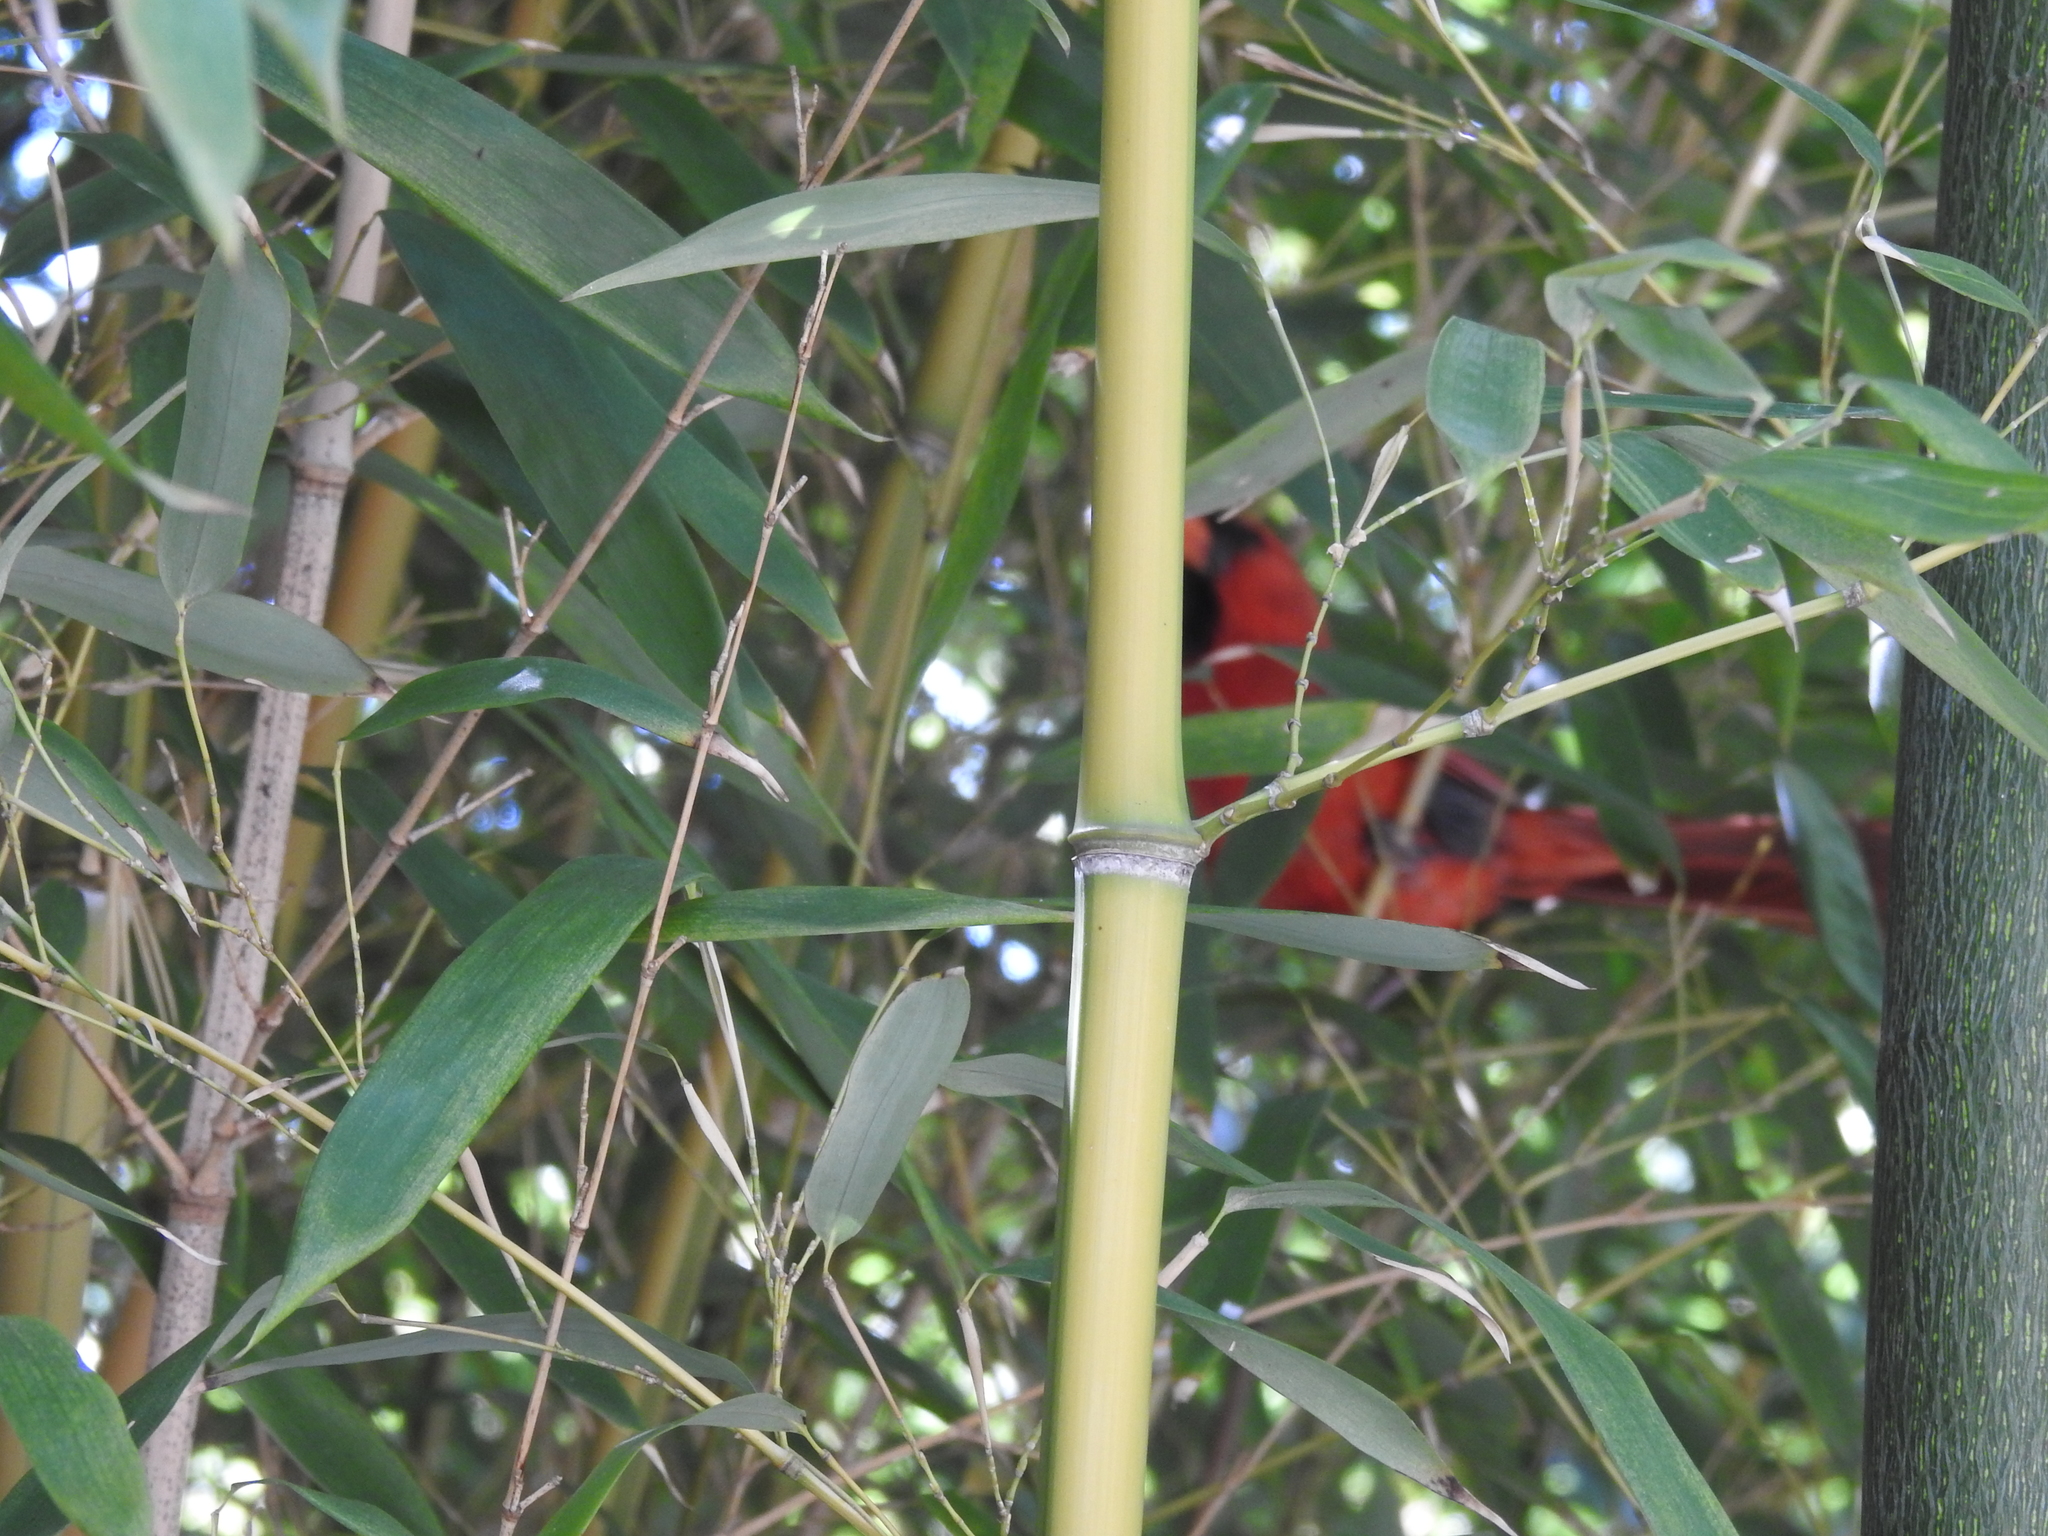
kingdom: Animalia
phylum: Chordata
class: Aves
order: Passeriformes
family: Cardinalidae
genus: Cardinalis
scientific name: Cardinalis cardinalis
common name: Northern cardinal
